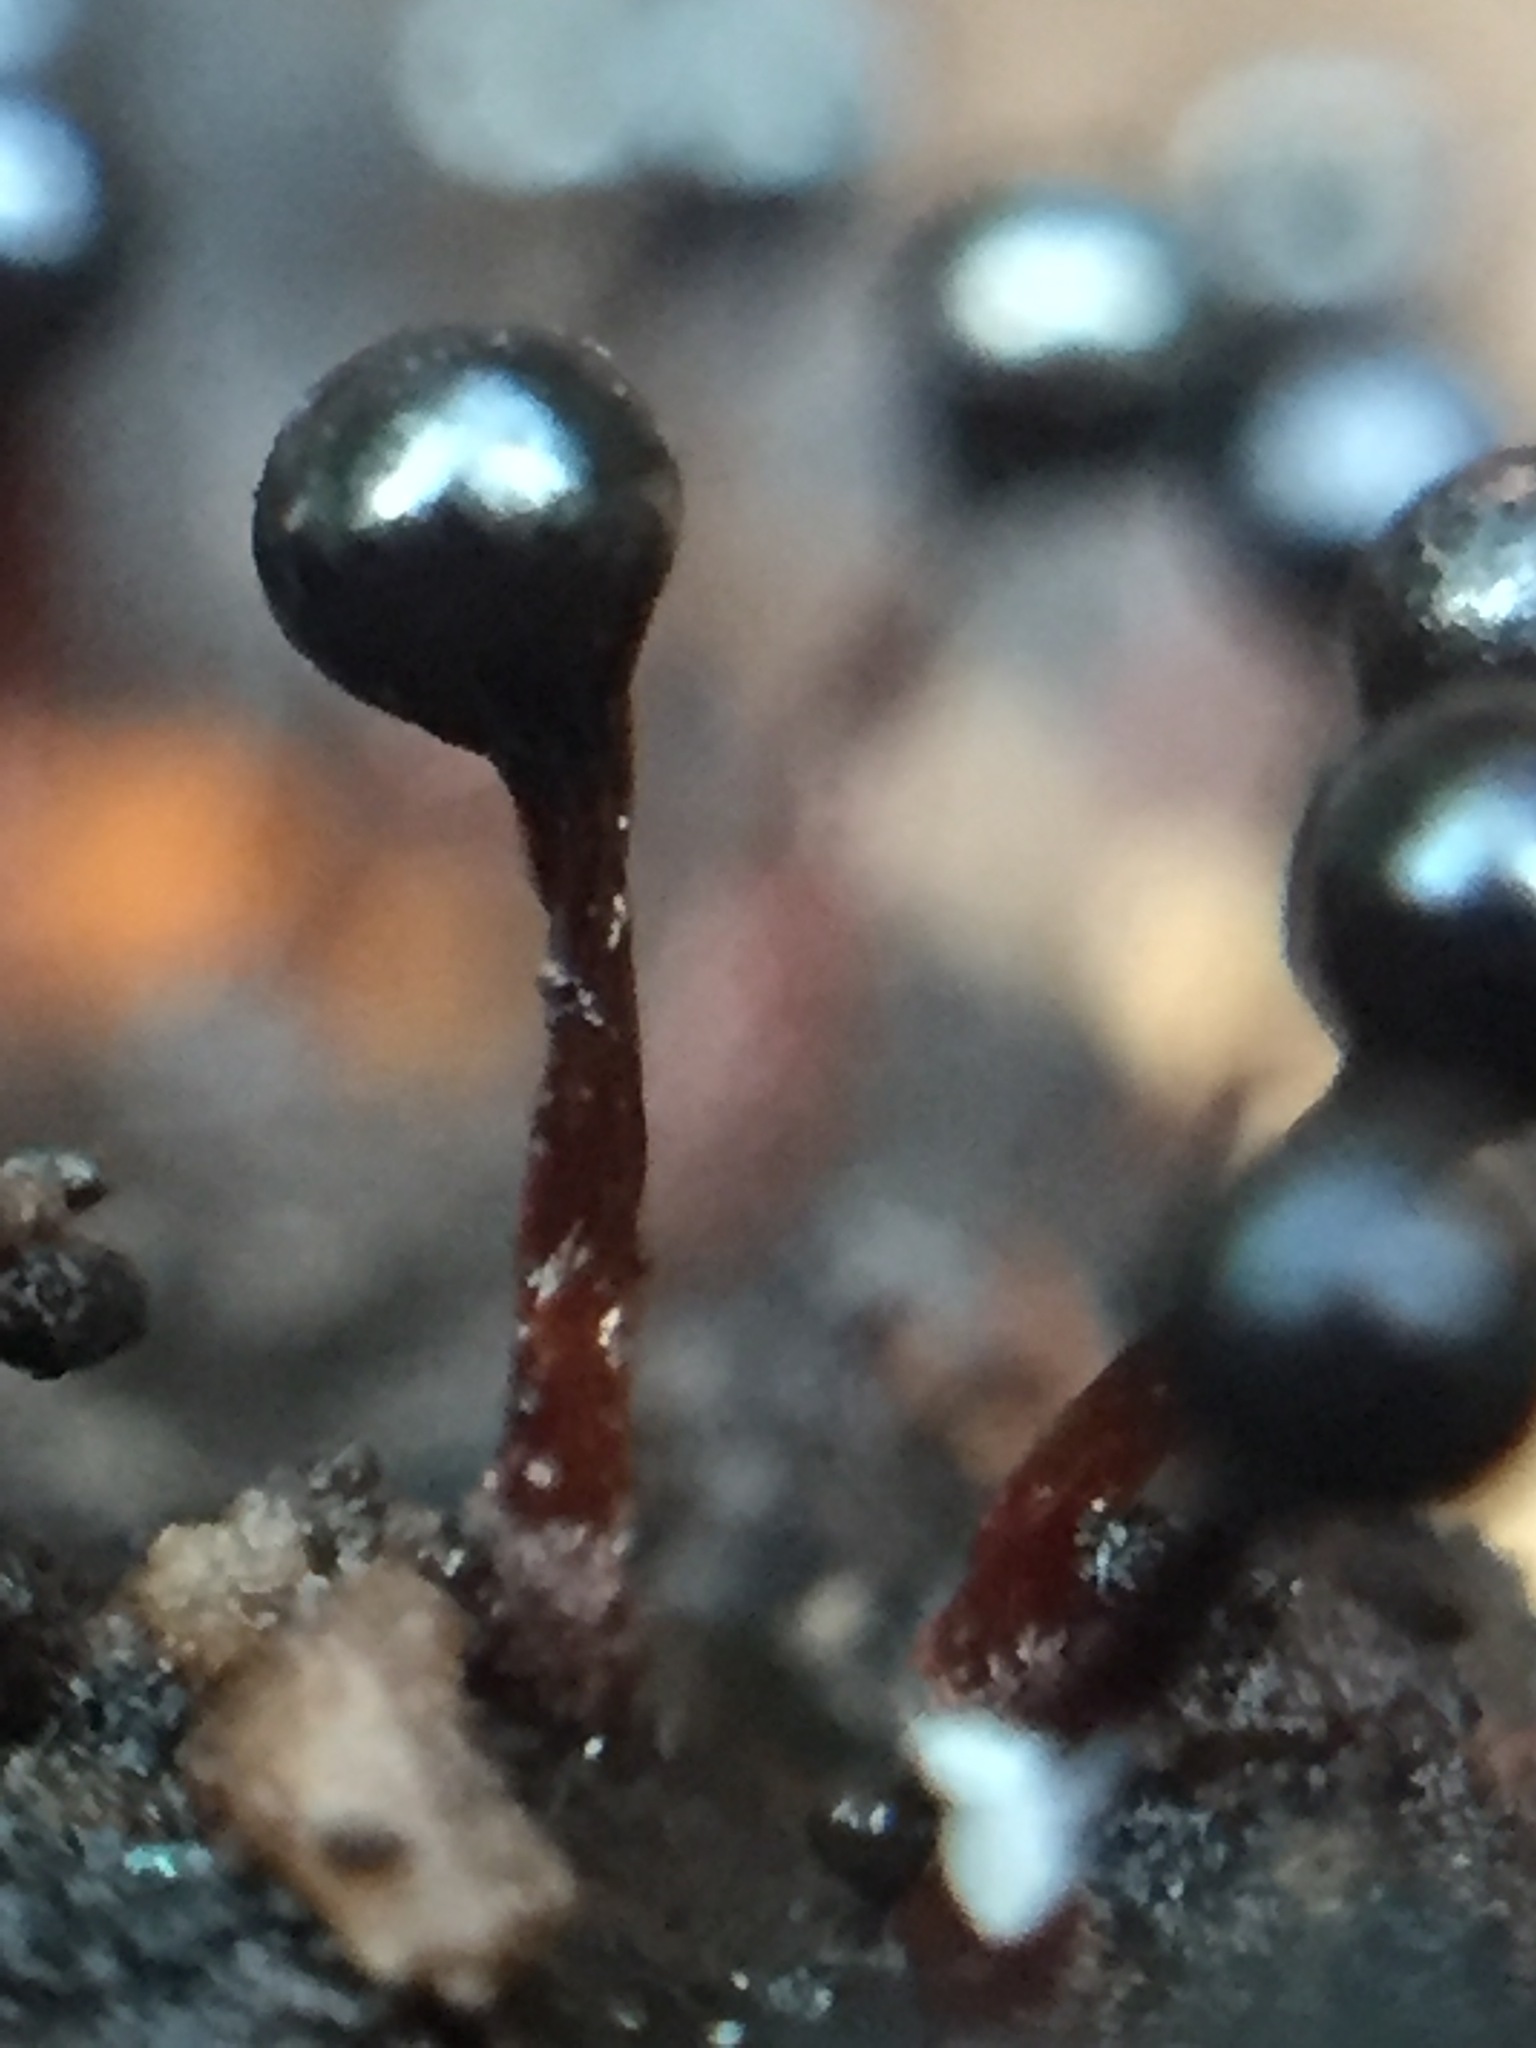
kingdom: Protozoa
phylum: Mycetozoa
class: Myxomycetes
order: Trichiales
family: Trichiaceae
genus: Metatrichia
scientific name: Metatrichia floriformis
